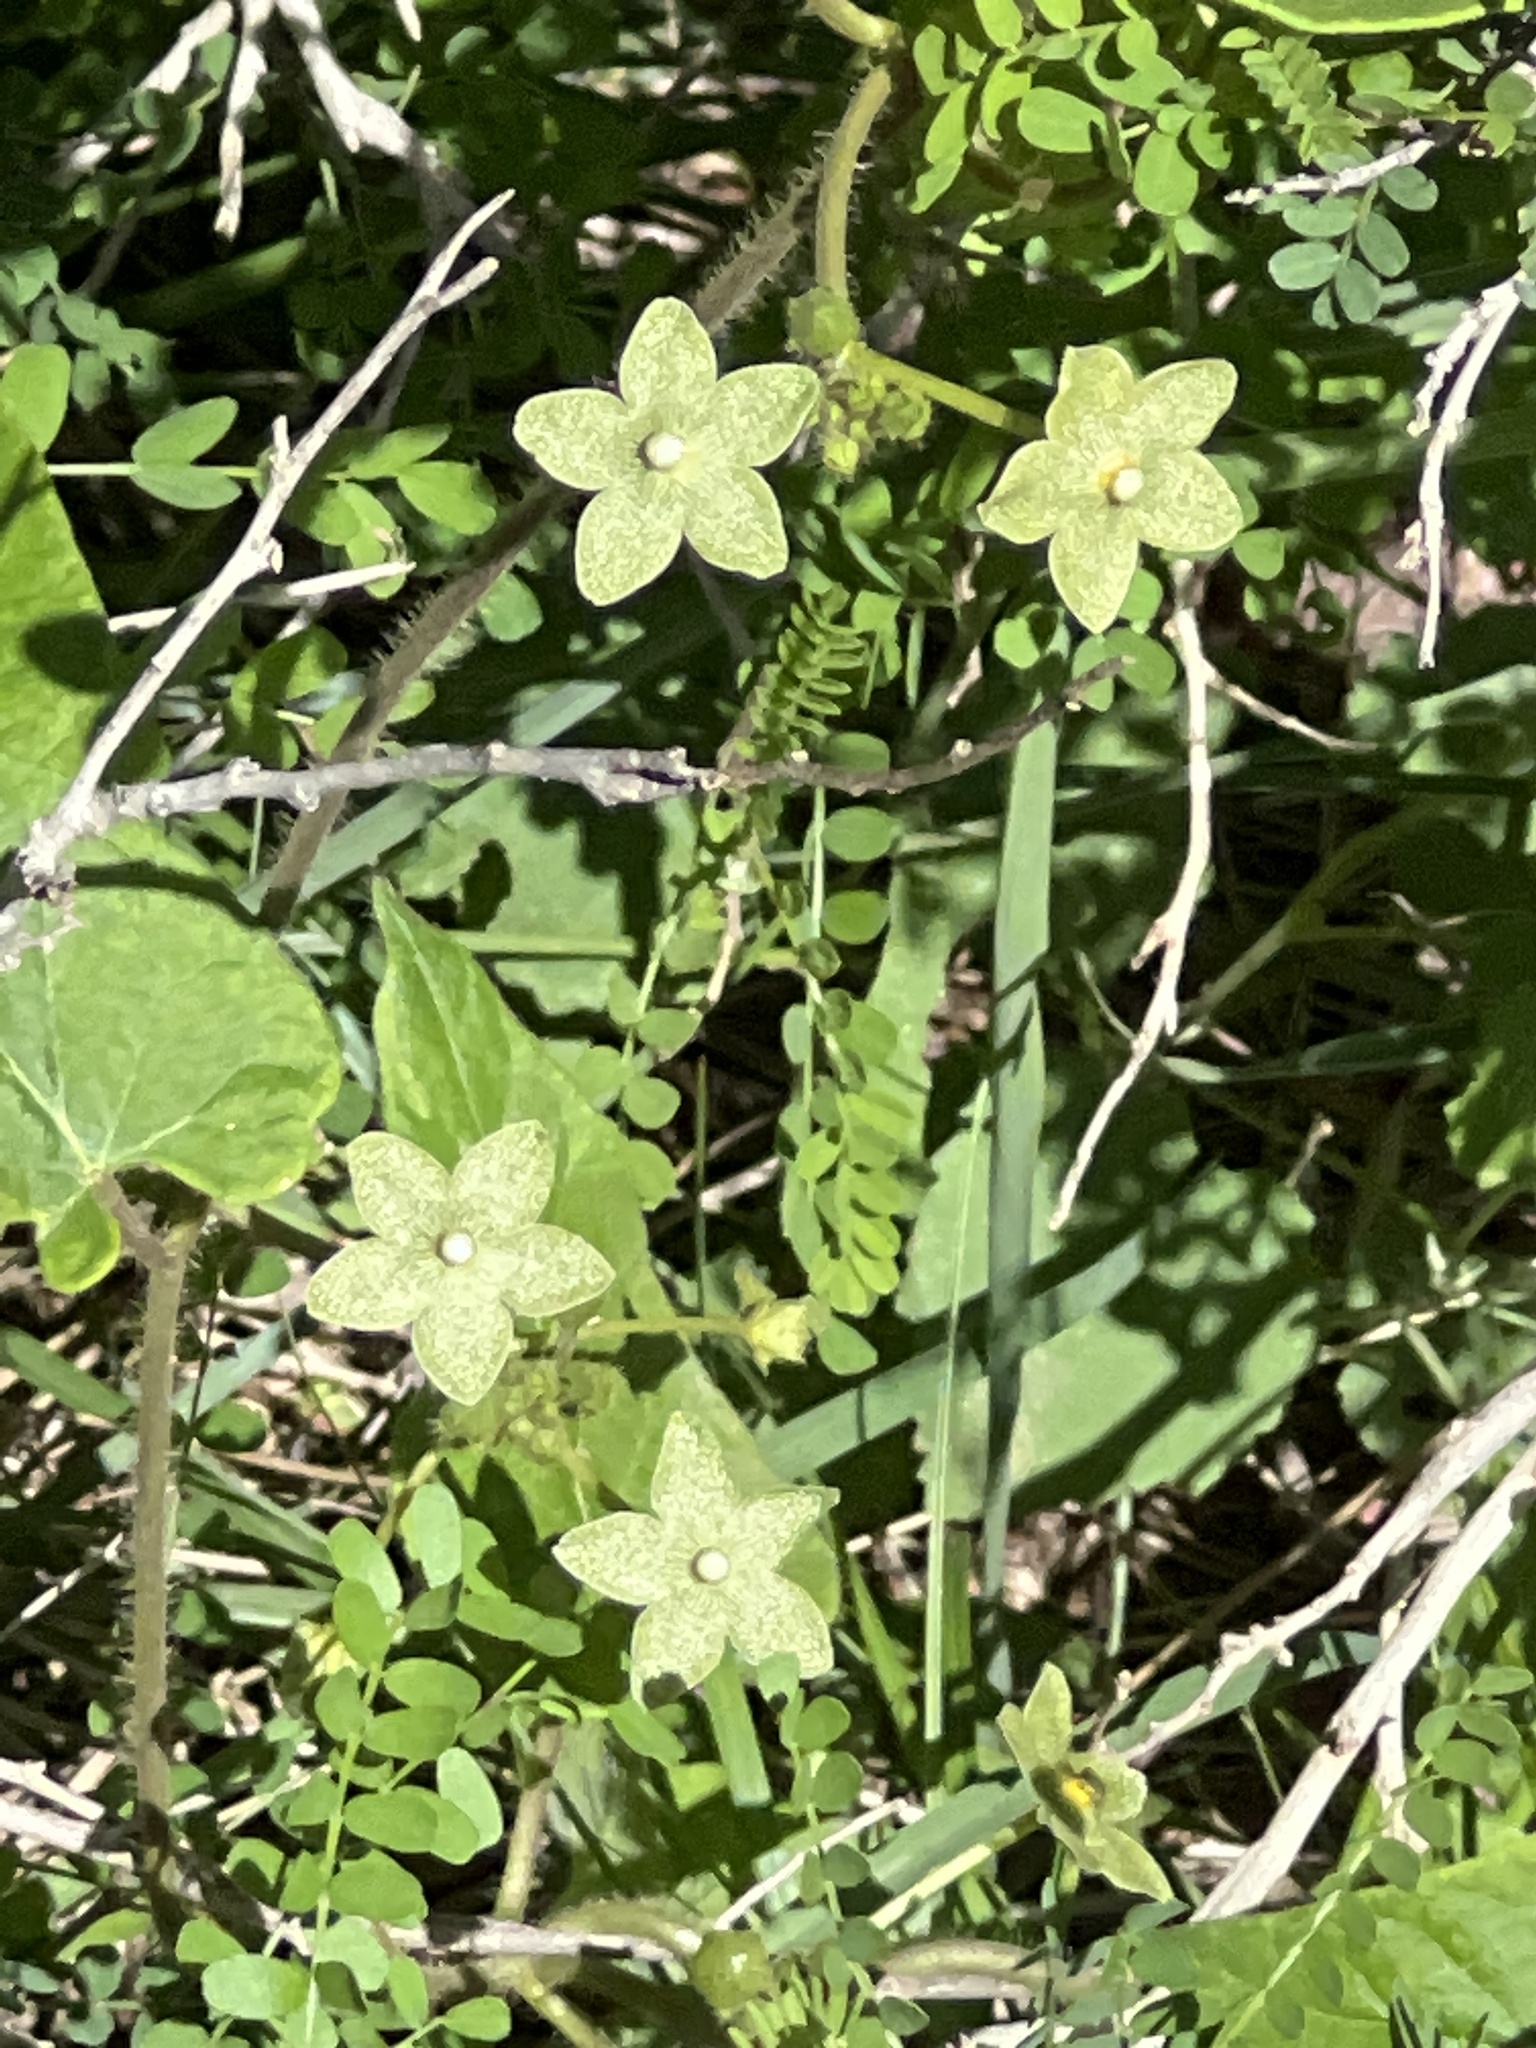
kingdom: Plantae
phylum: Tracheophyta
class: Magnoliopsida
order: Gentianales
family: Apocynaceae
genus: Dictyanthus
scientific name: Dictyanthus reticulatus
